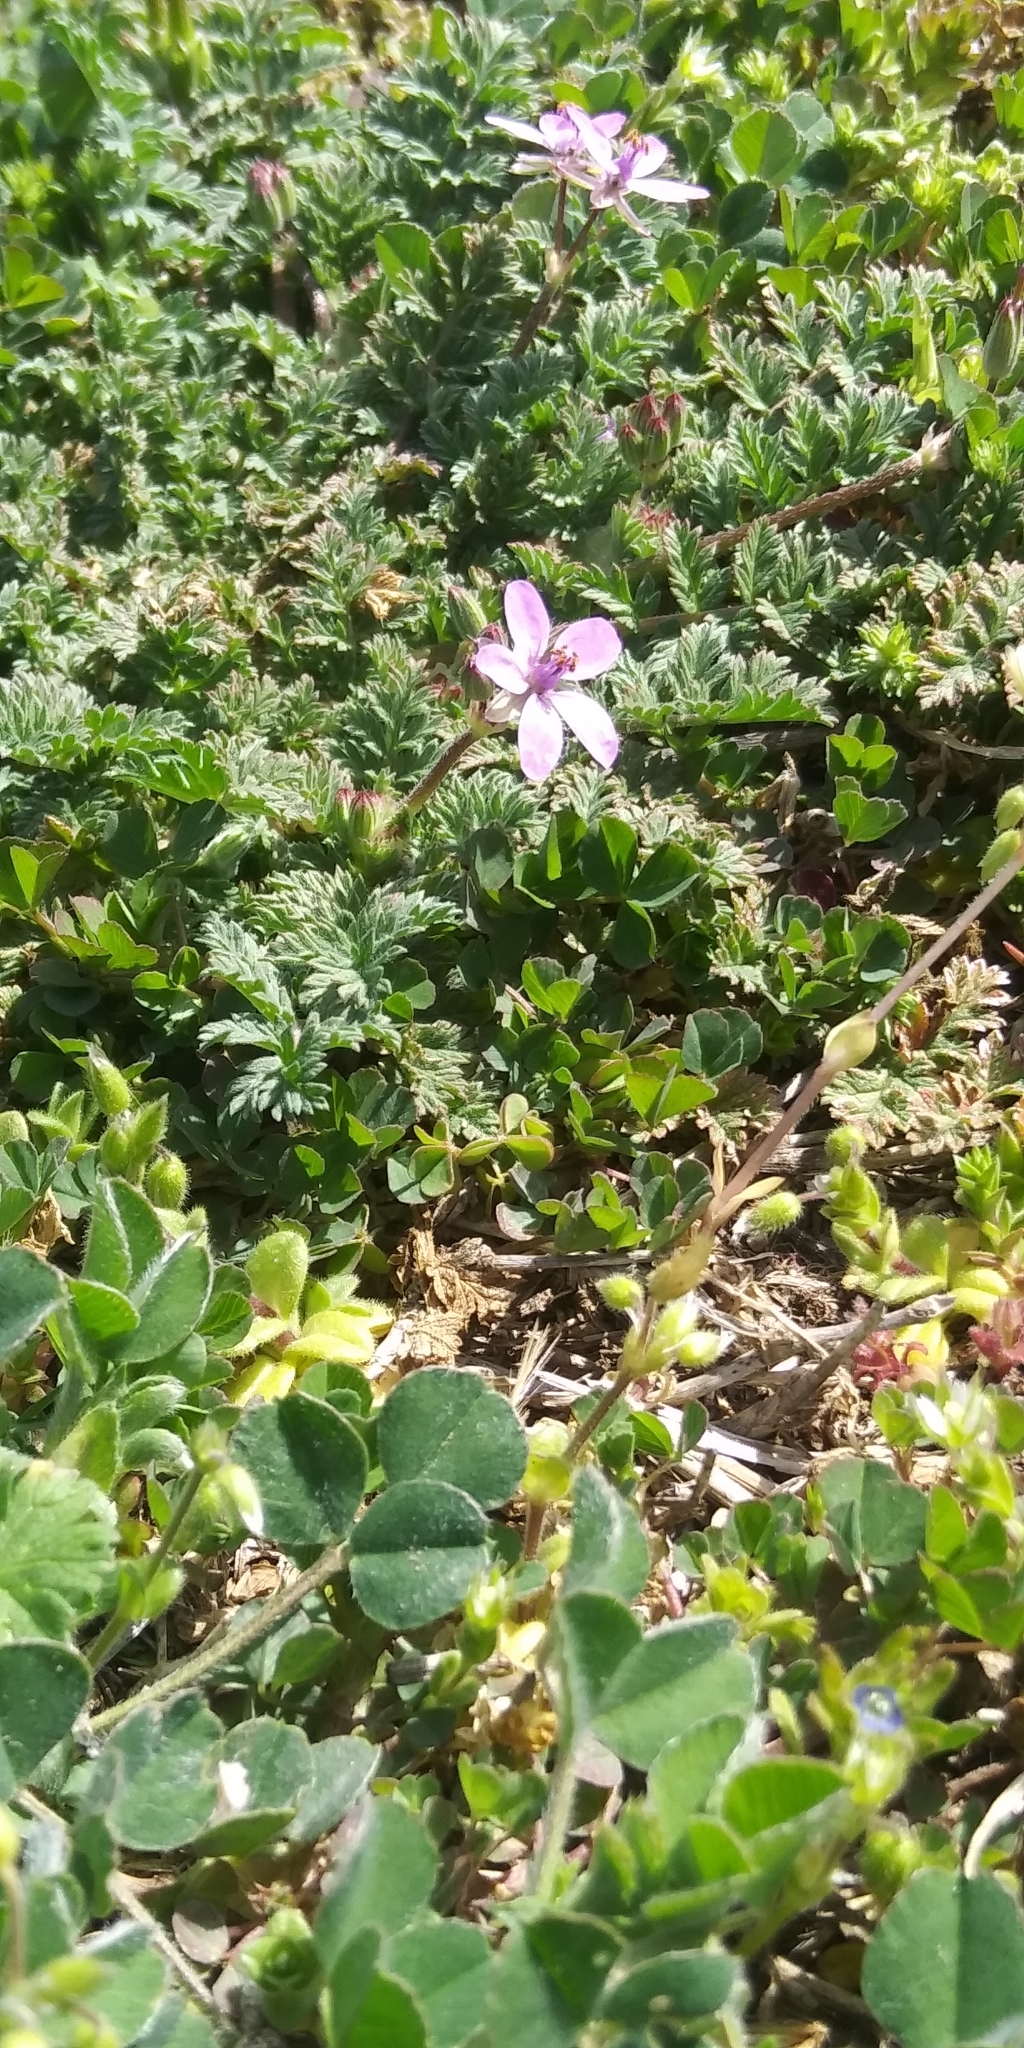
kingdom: Plantae
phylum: Tracheophyta
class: Magnoliopsida
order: Geraniales
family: Geraniaceae
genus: Erodium
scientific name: Erodium cicutarium
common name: Common stork's-bill
